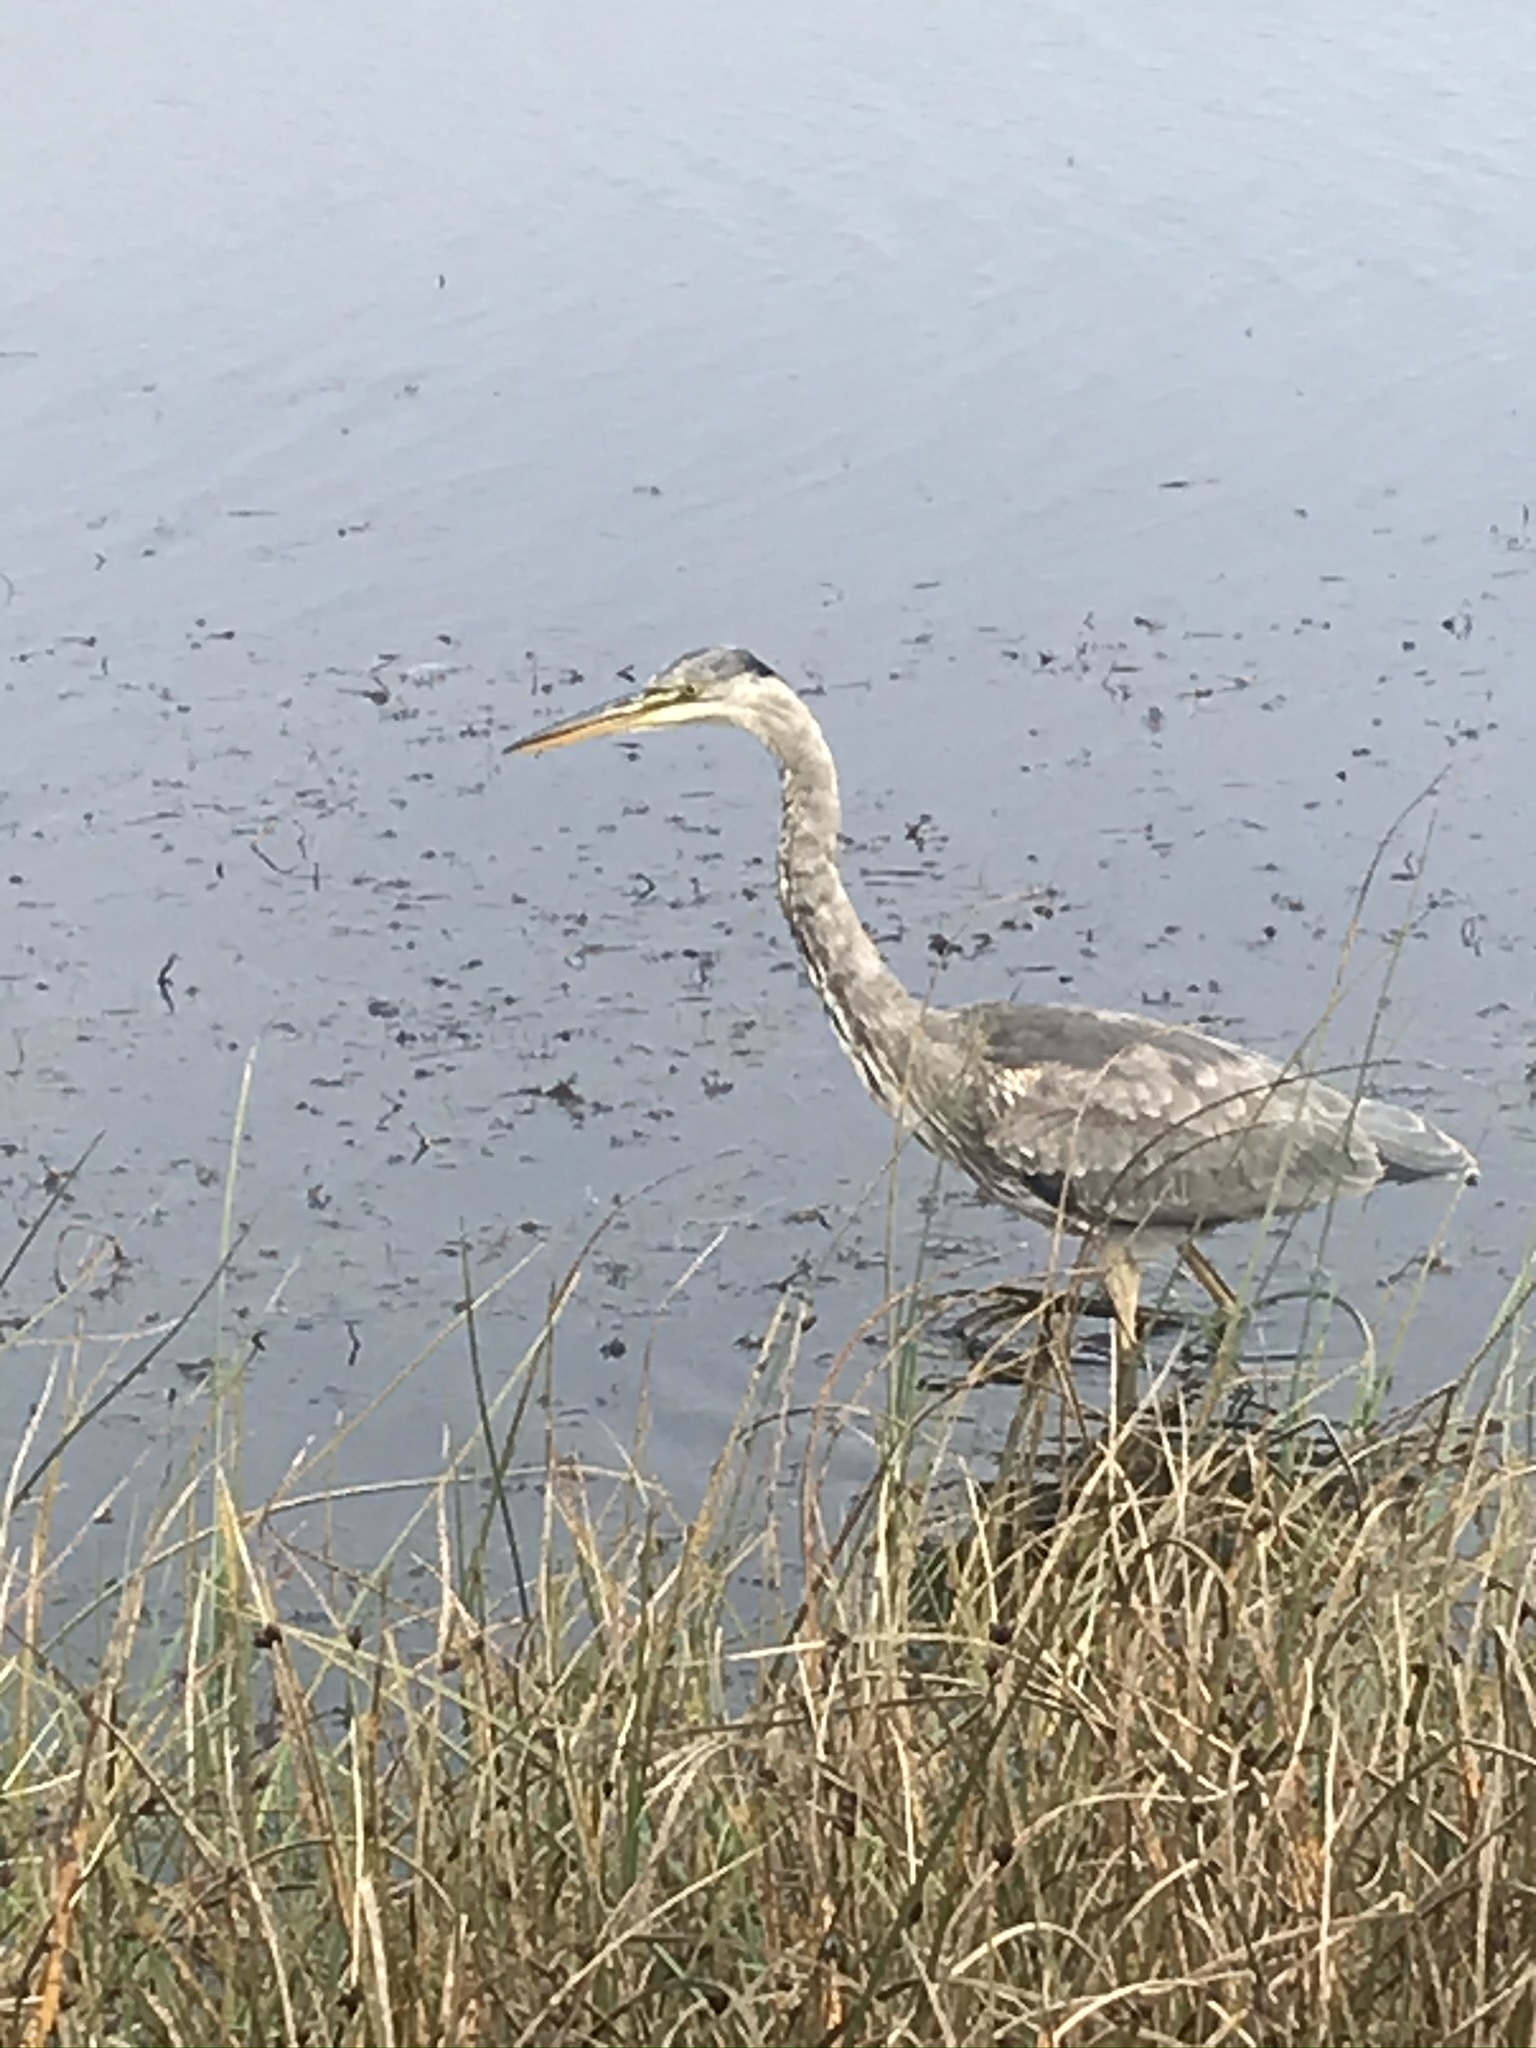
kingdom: Animalia
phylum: Chordata
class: Aves
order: Pelecaniformes
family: Ardeidae
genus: Ardea
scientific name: Ardea herodias
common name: Great blue heron
